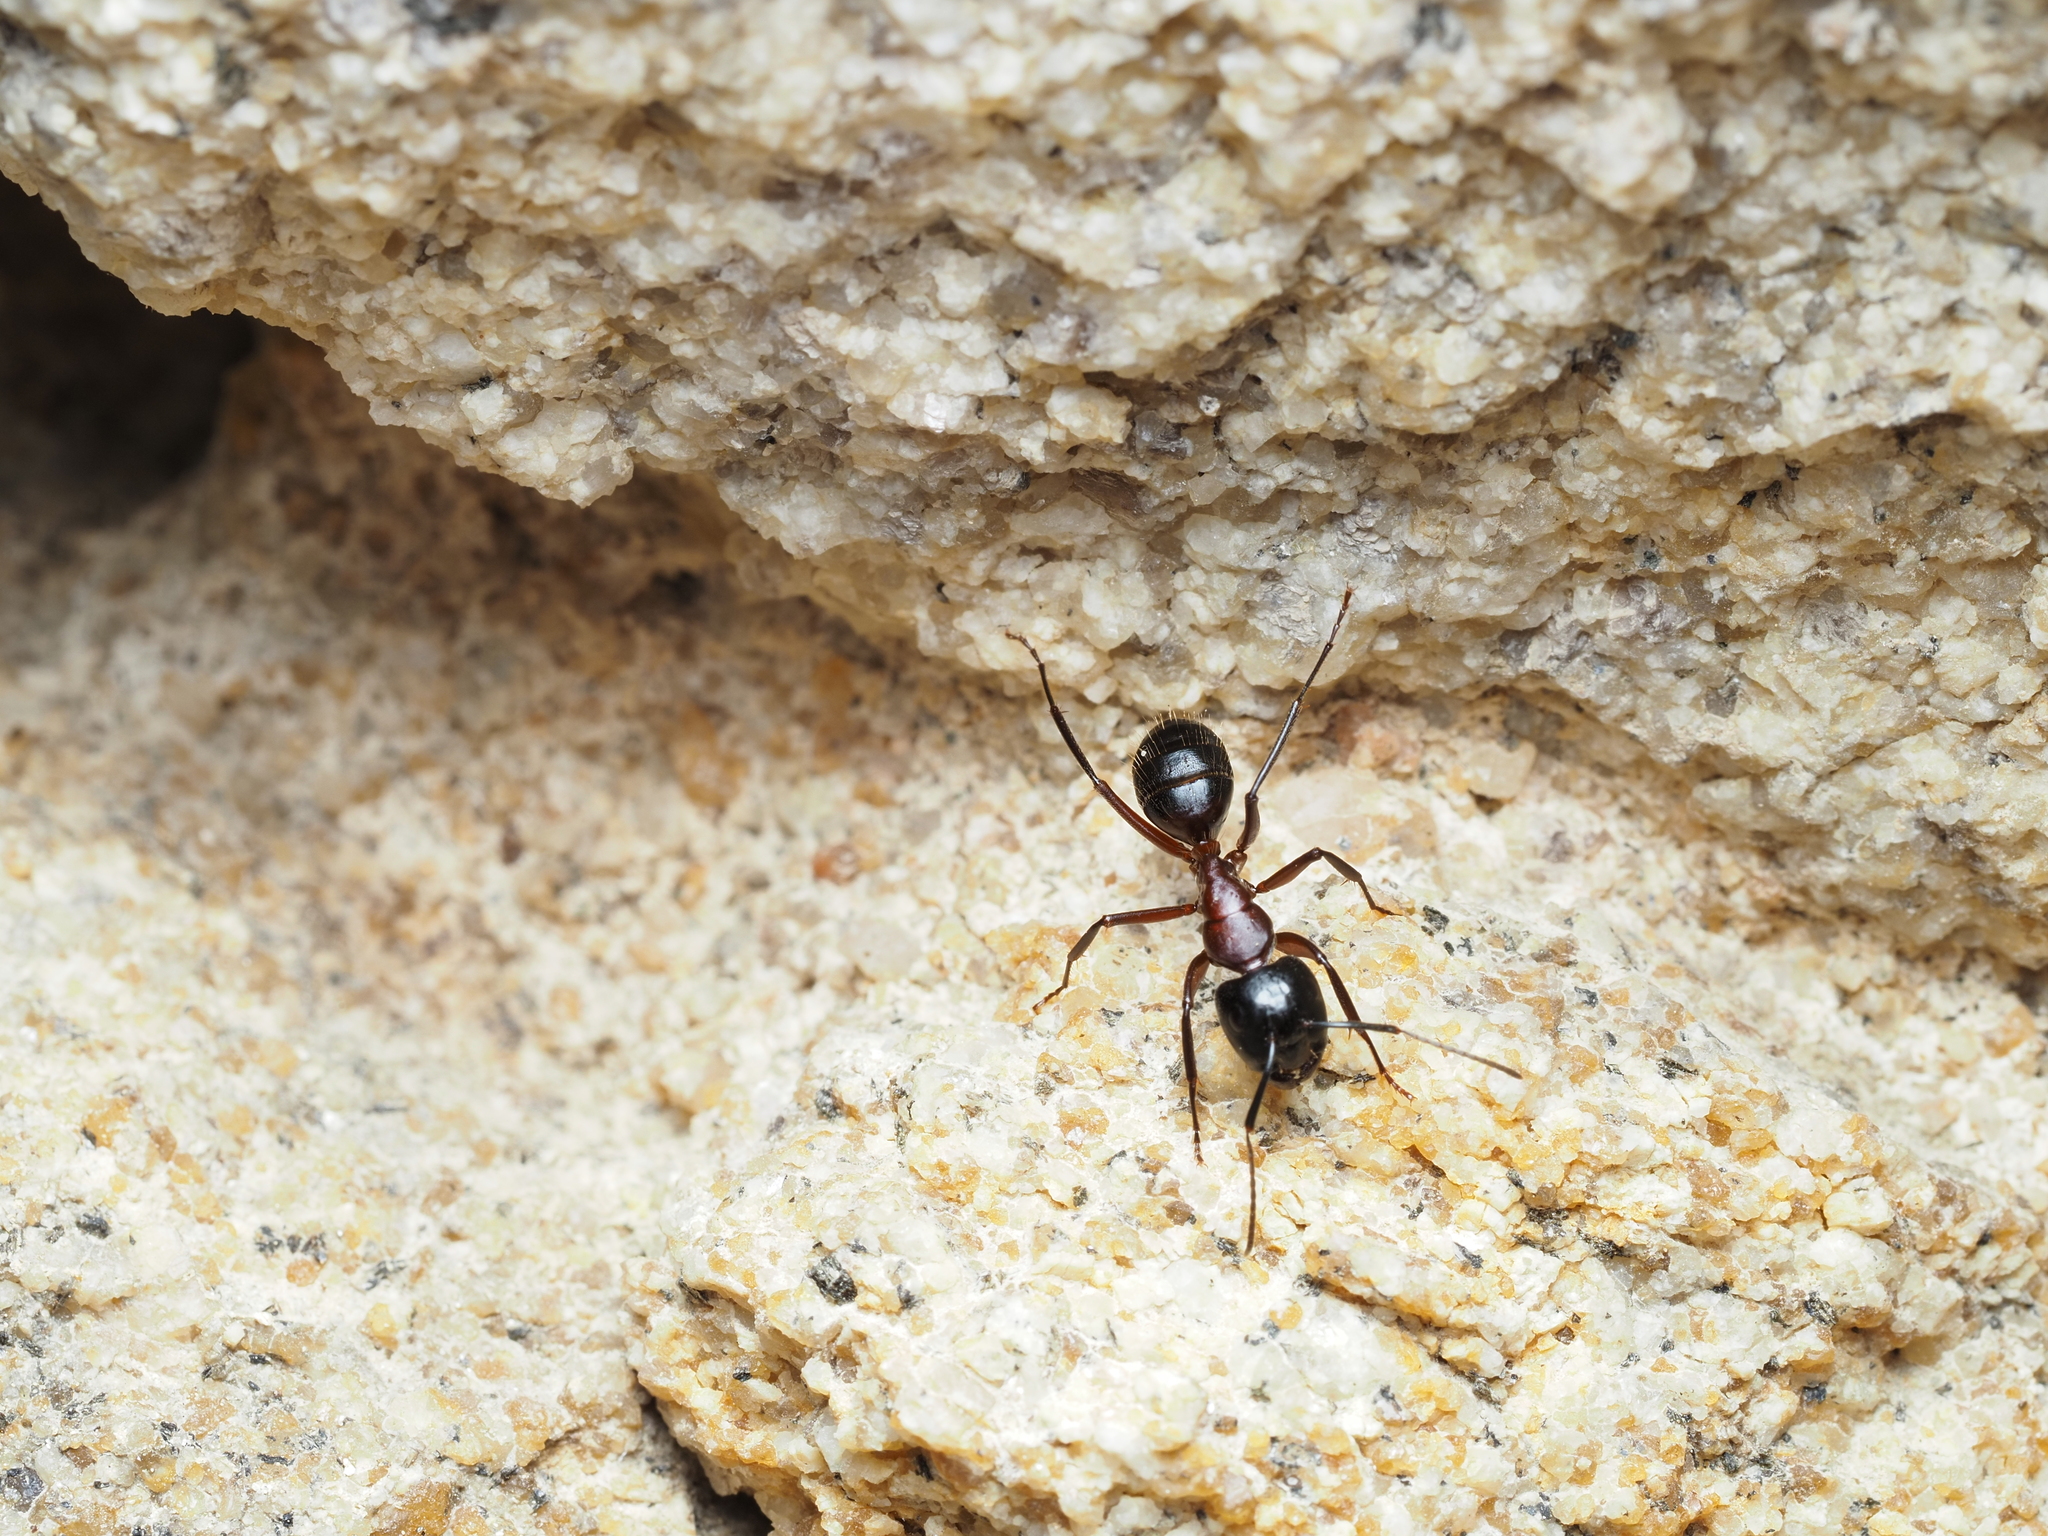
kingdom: Animalia
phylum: Arthropoda
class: Insecta
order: Hymenoptera
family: Formicidae
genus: Camponotus
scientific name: Camponotus ligniperdus
